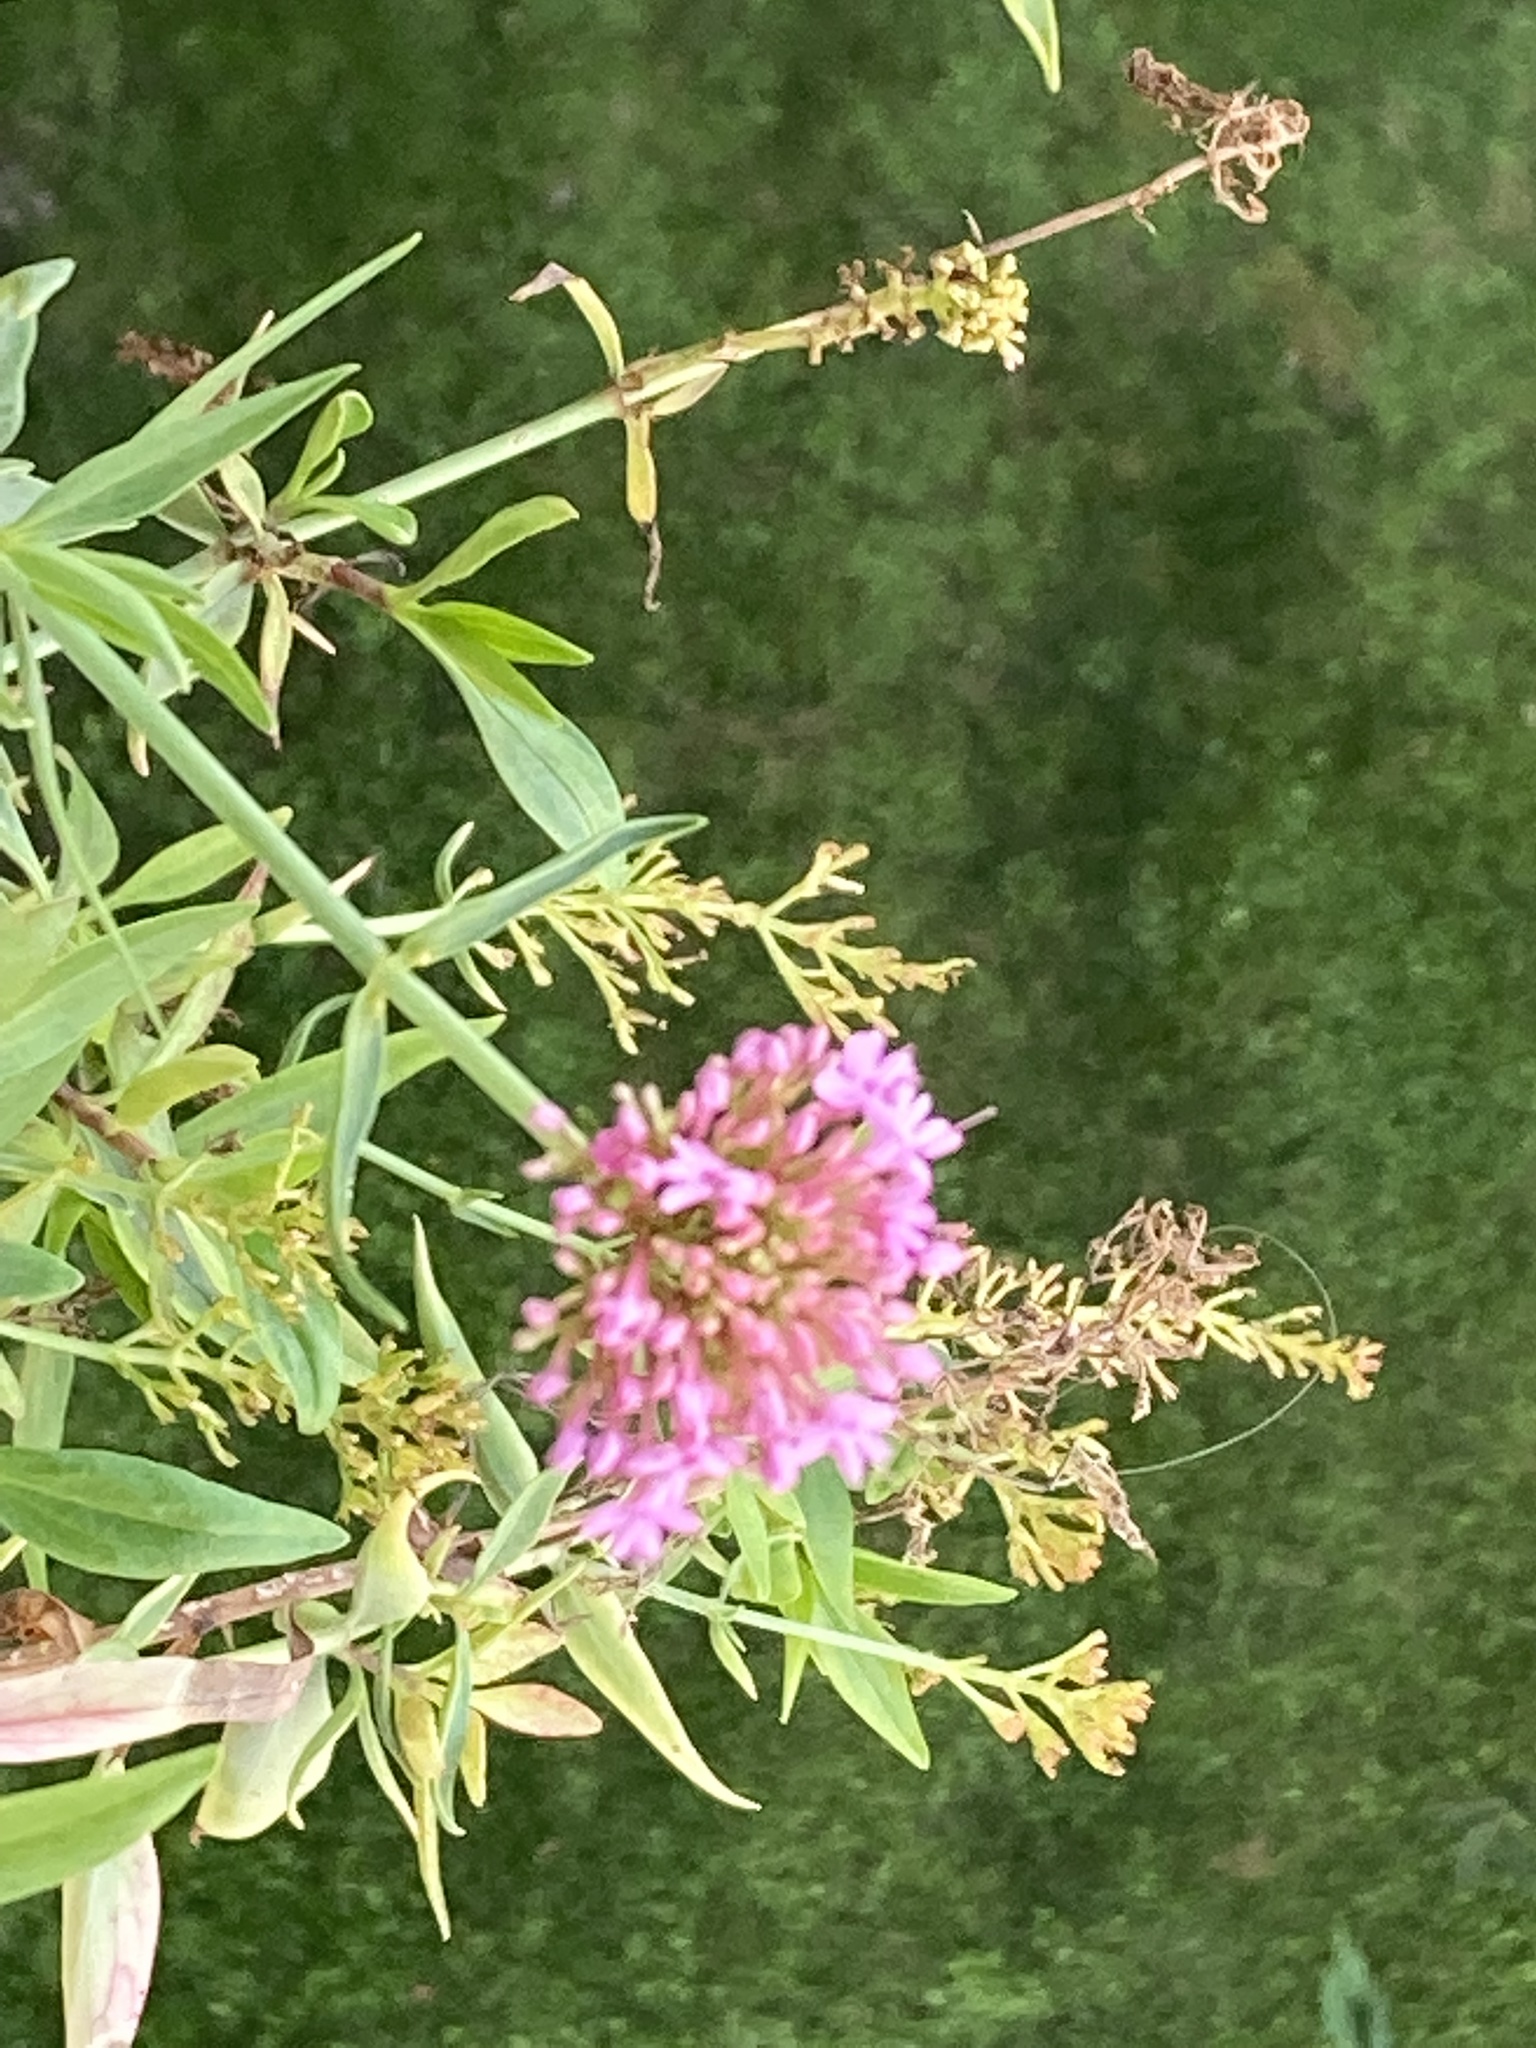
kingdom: Plantae
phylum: Tracheophyta
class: Magnoliopsida
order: Dipsacales
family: Caprifoliaceae
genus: Centranthus
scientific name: Centranthus ruber
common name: Red valerian
